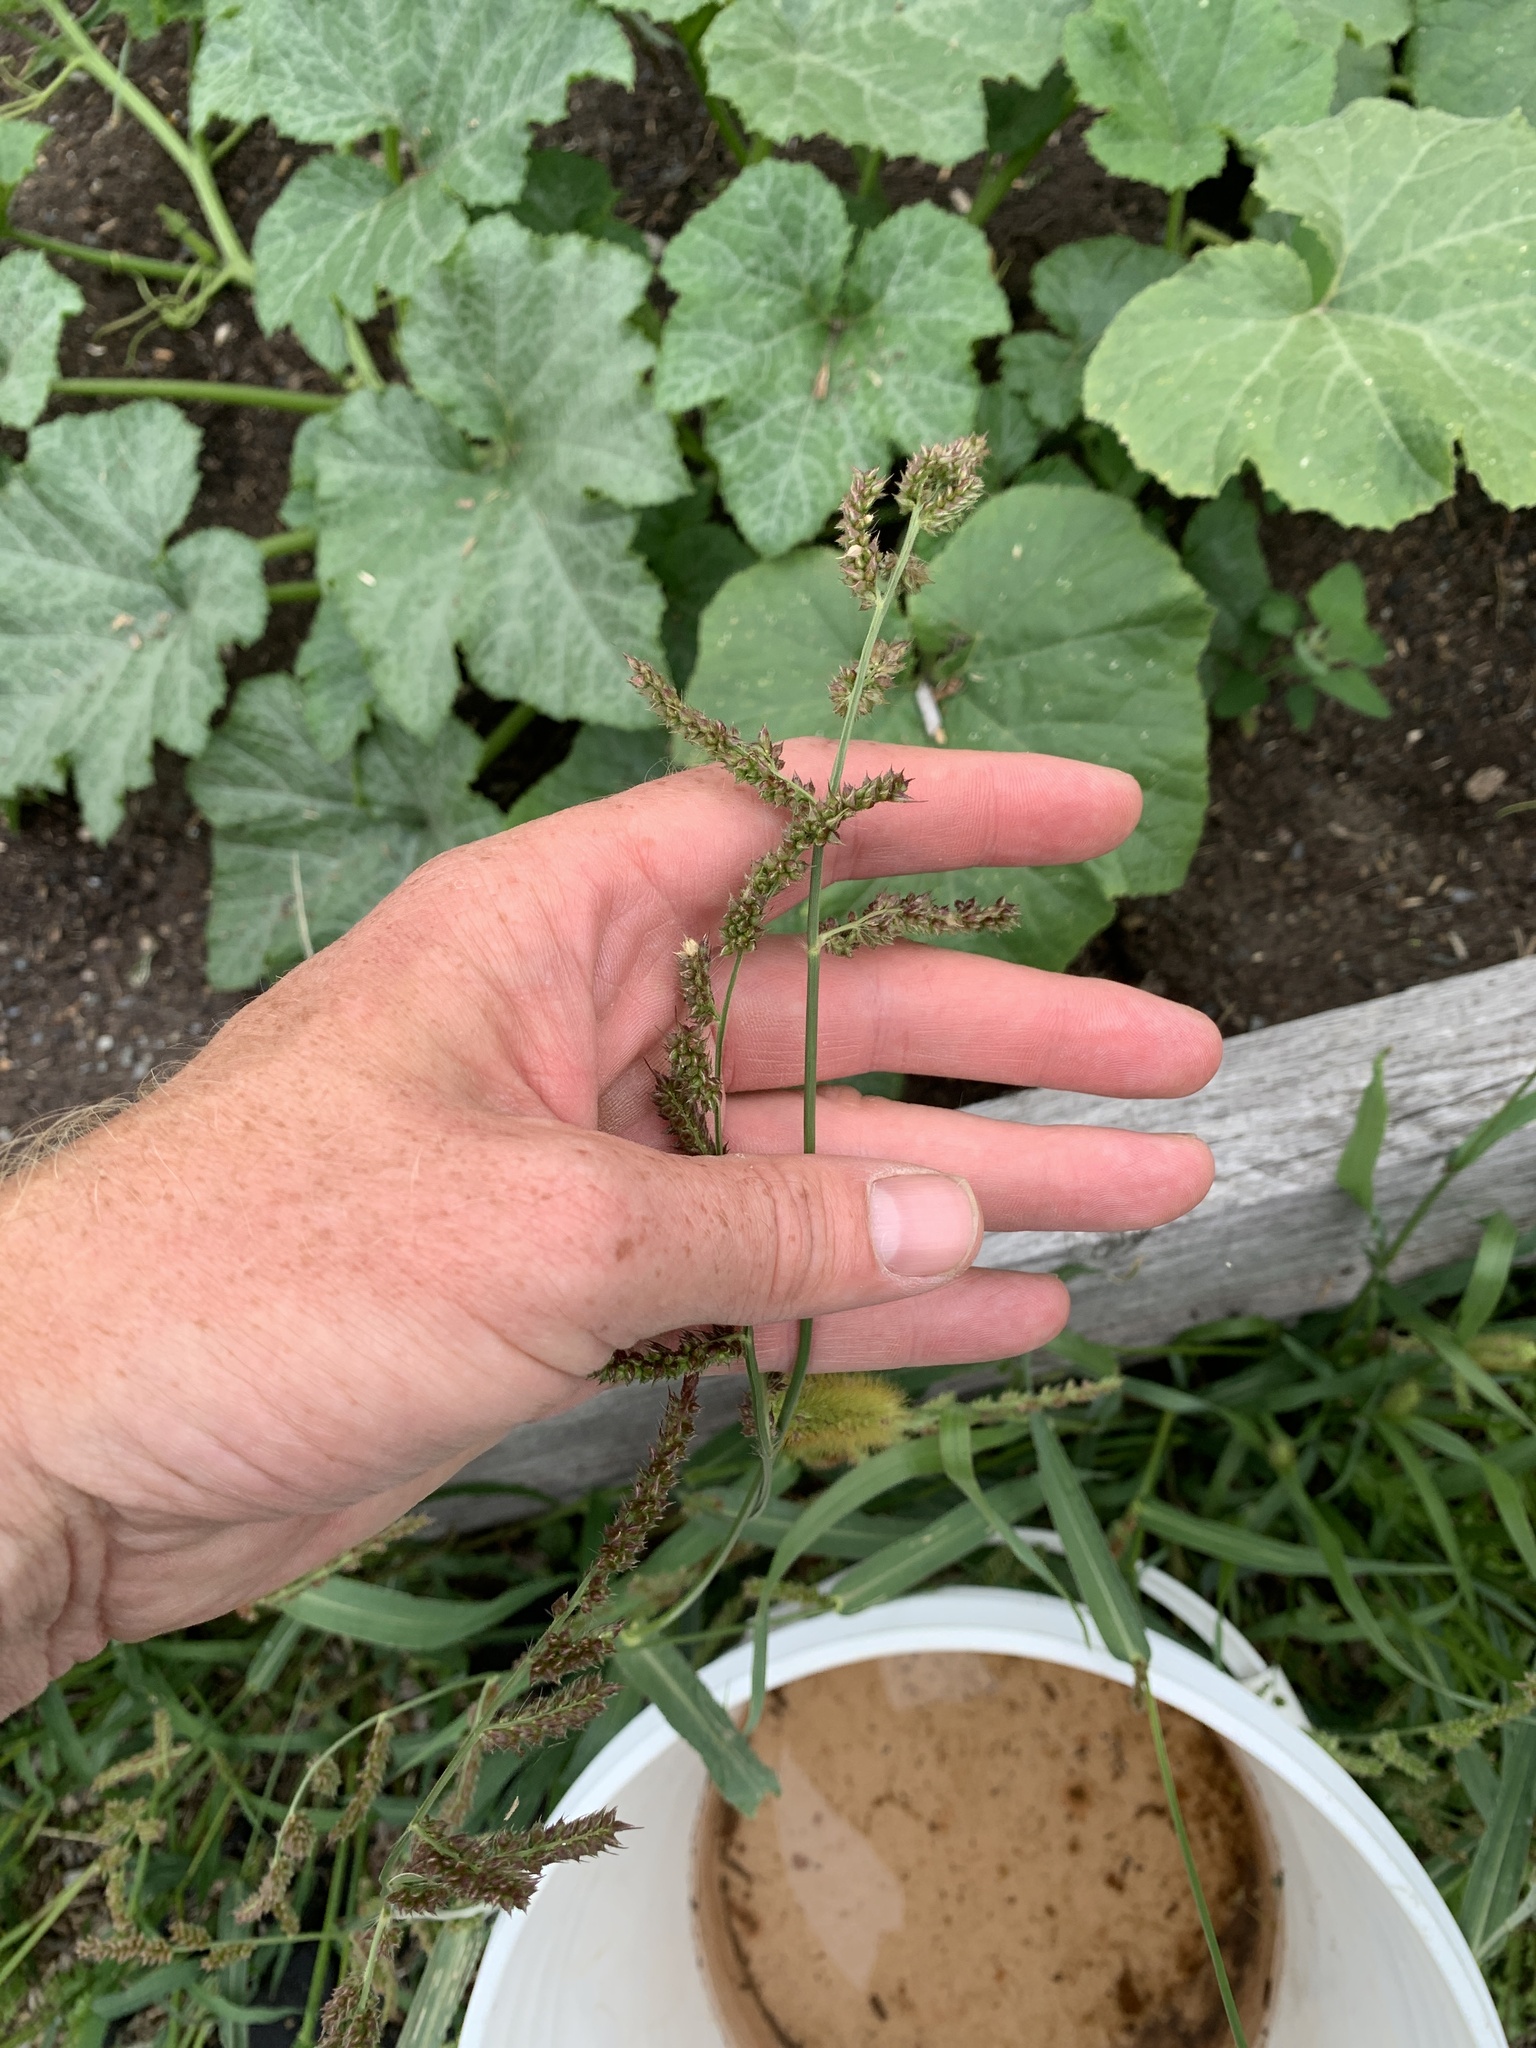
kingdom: Plantae
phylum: Tracheophyta
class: Liliopsida
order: Poales
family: Poaceae
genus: Echinochloa
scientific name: Echinochloa crus-galli
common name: Cockspur
